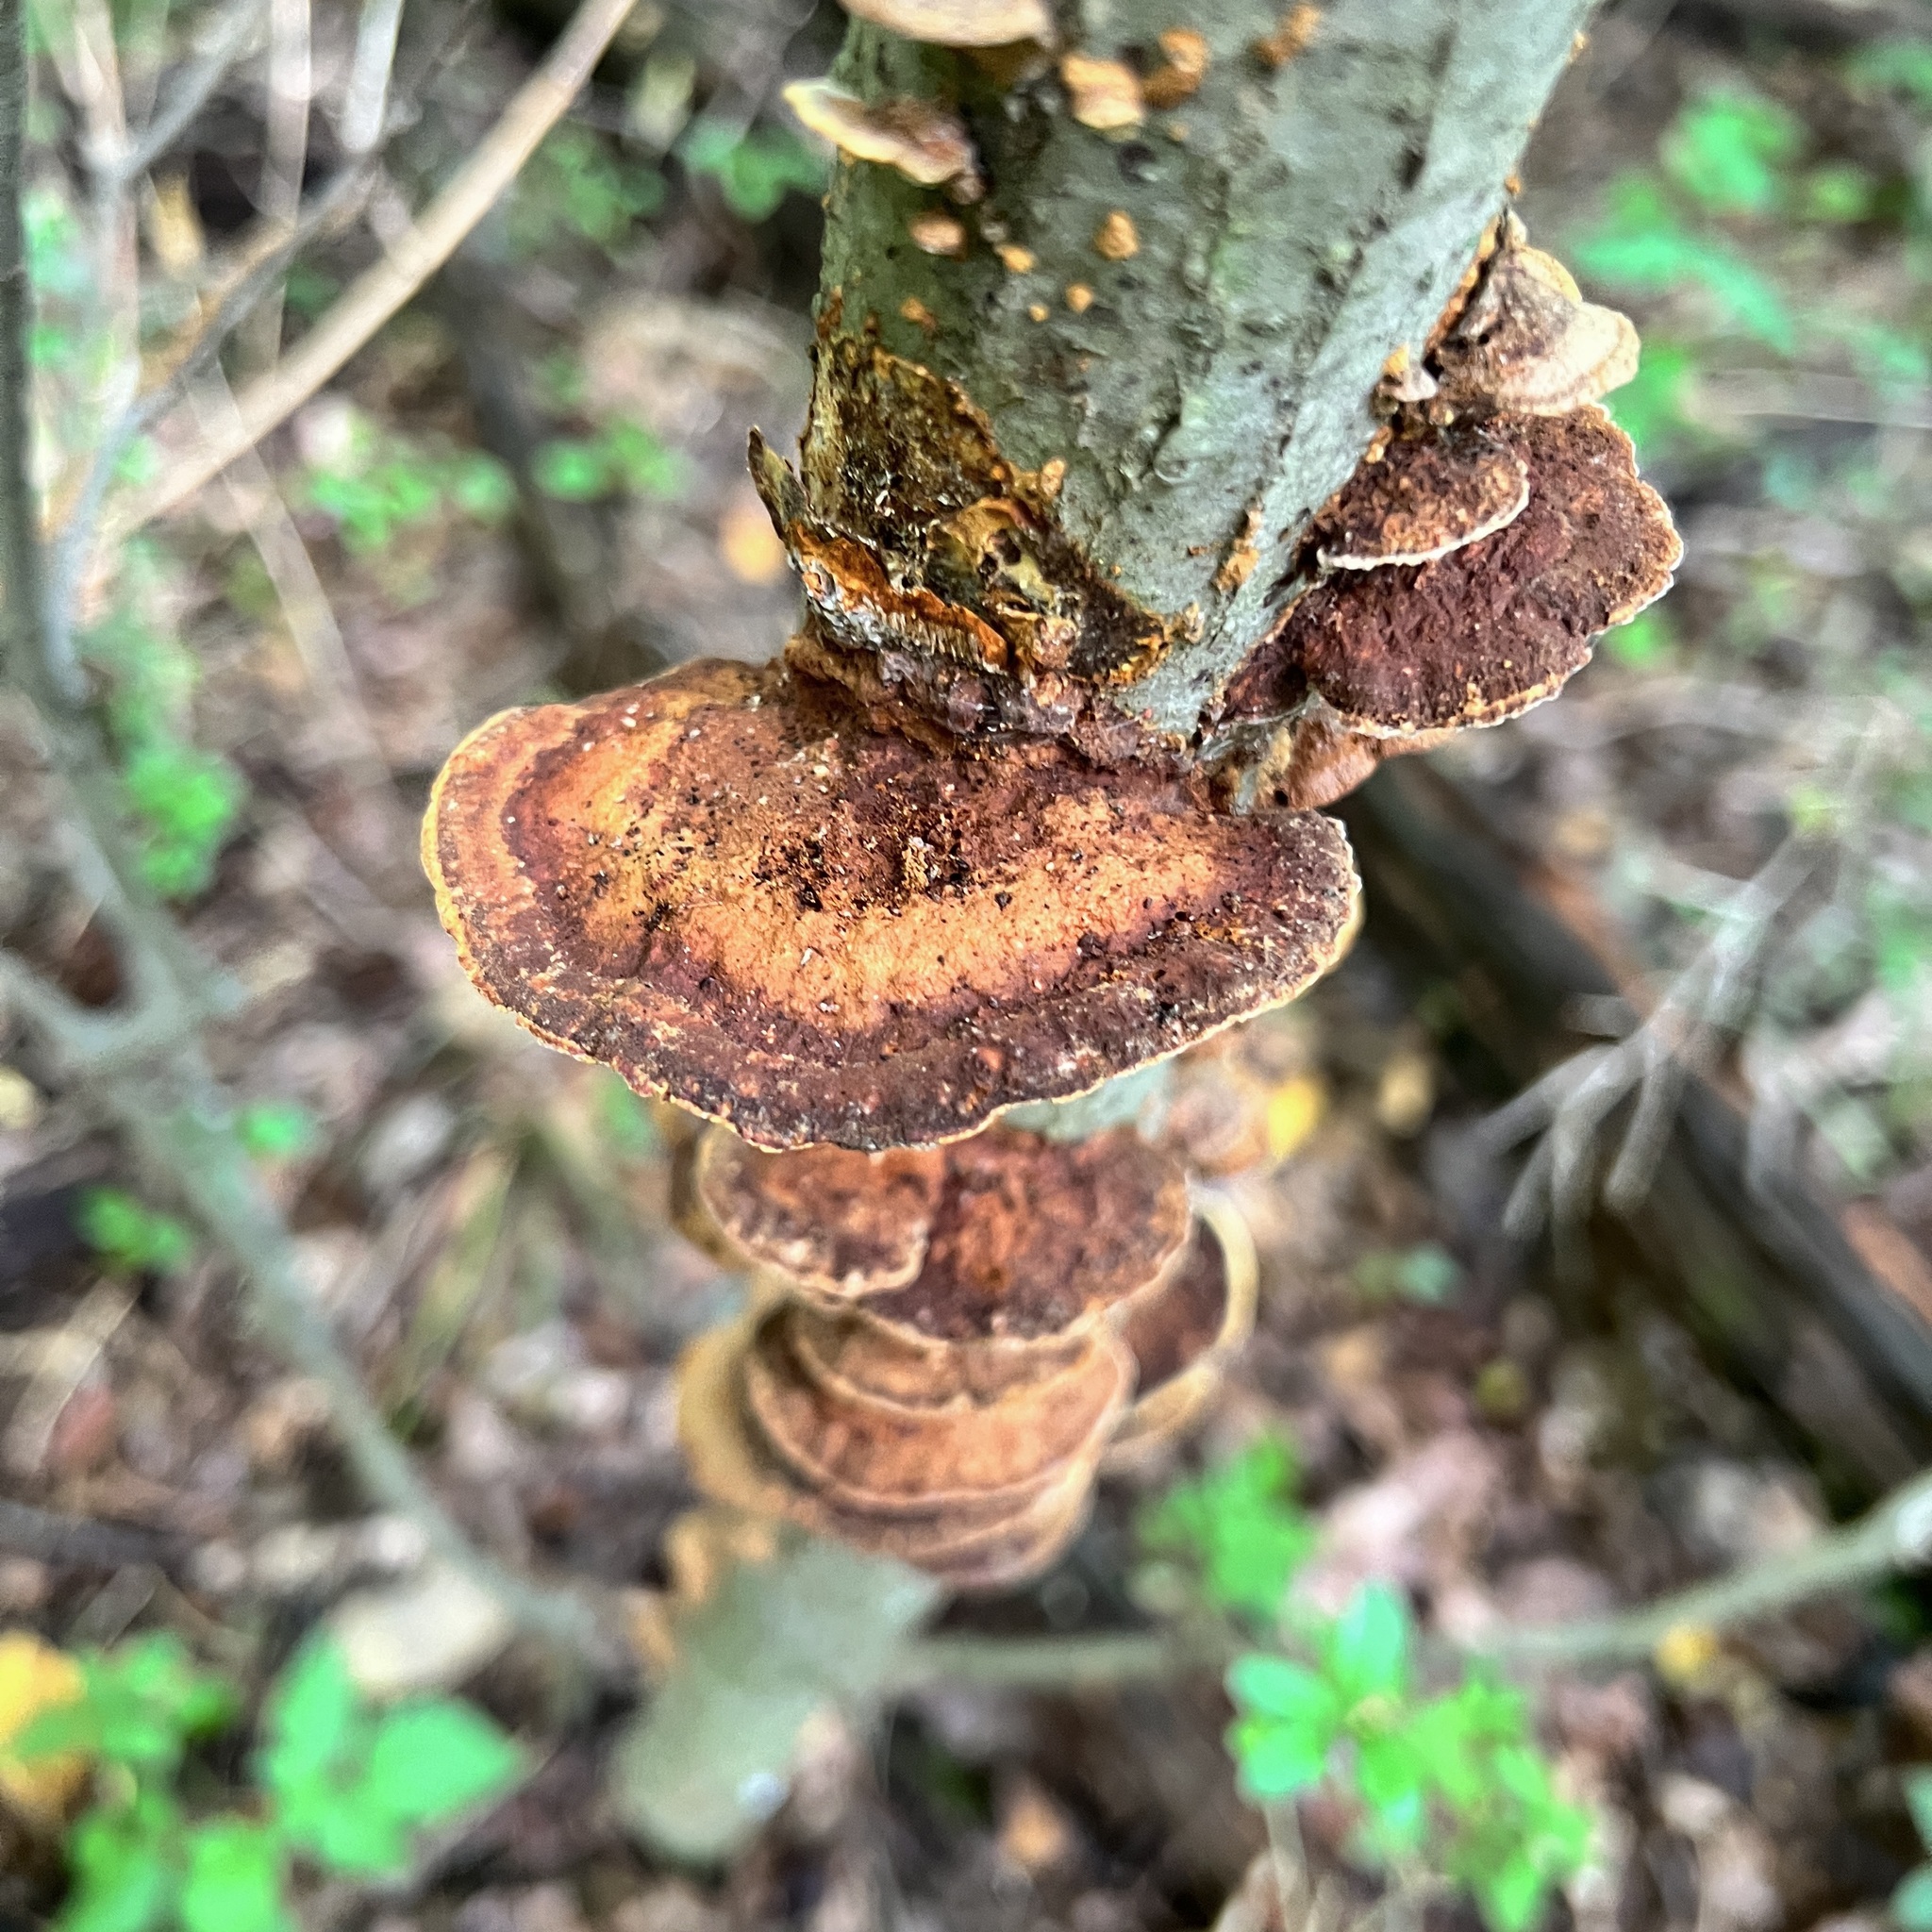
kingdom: Fungi
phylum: Basidiomycota
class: Agaricomycetes
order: Hymenochaetales
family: Hymenochaetaceae
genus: Phellinus
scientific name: Phellinus gilvus
